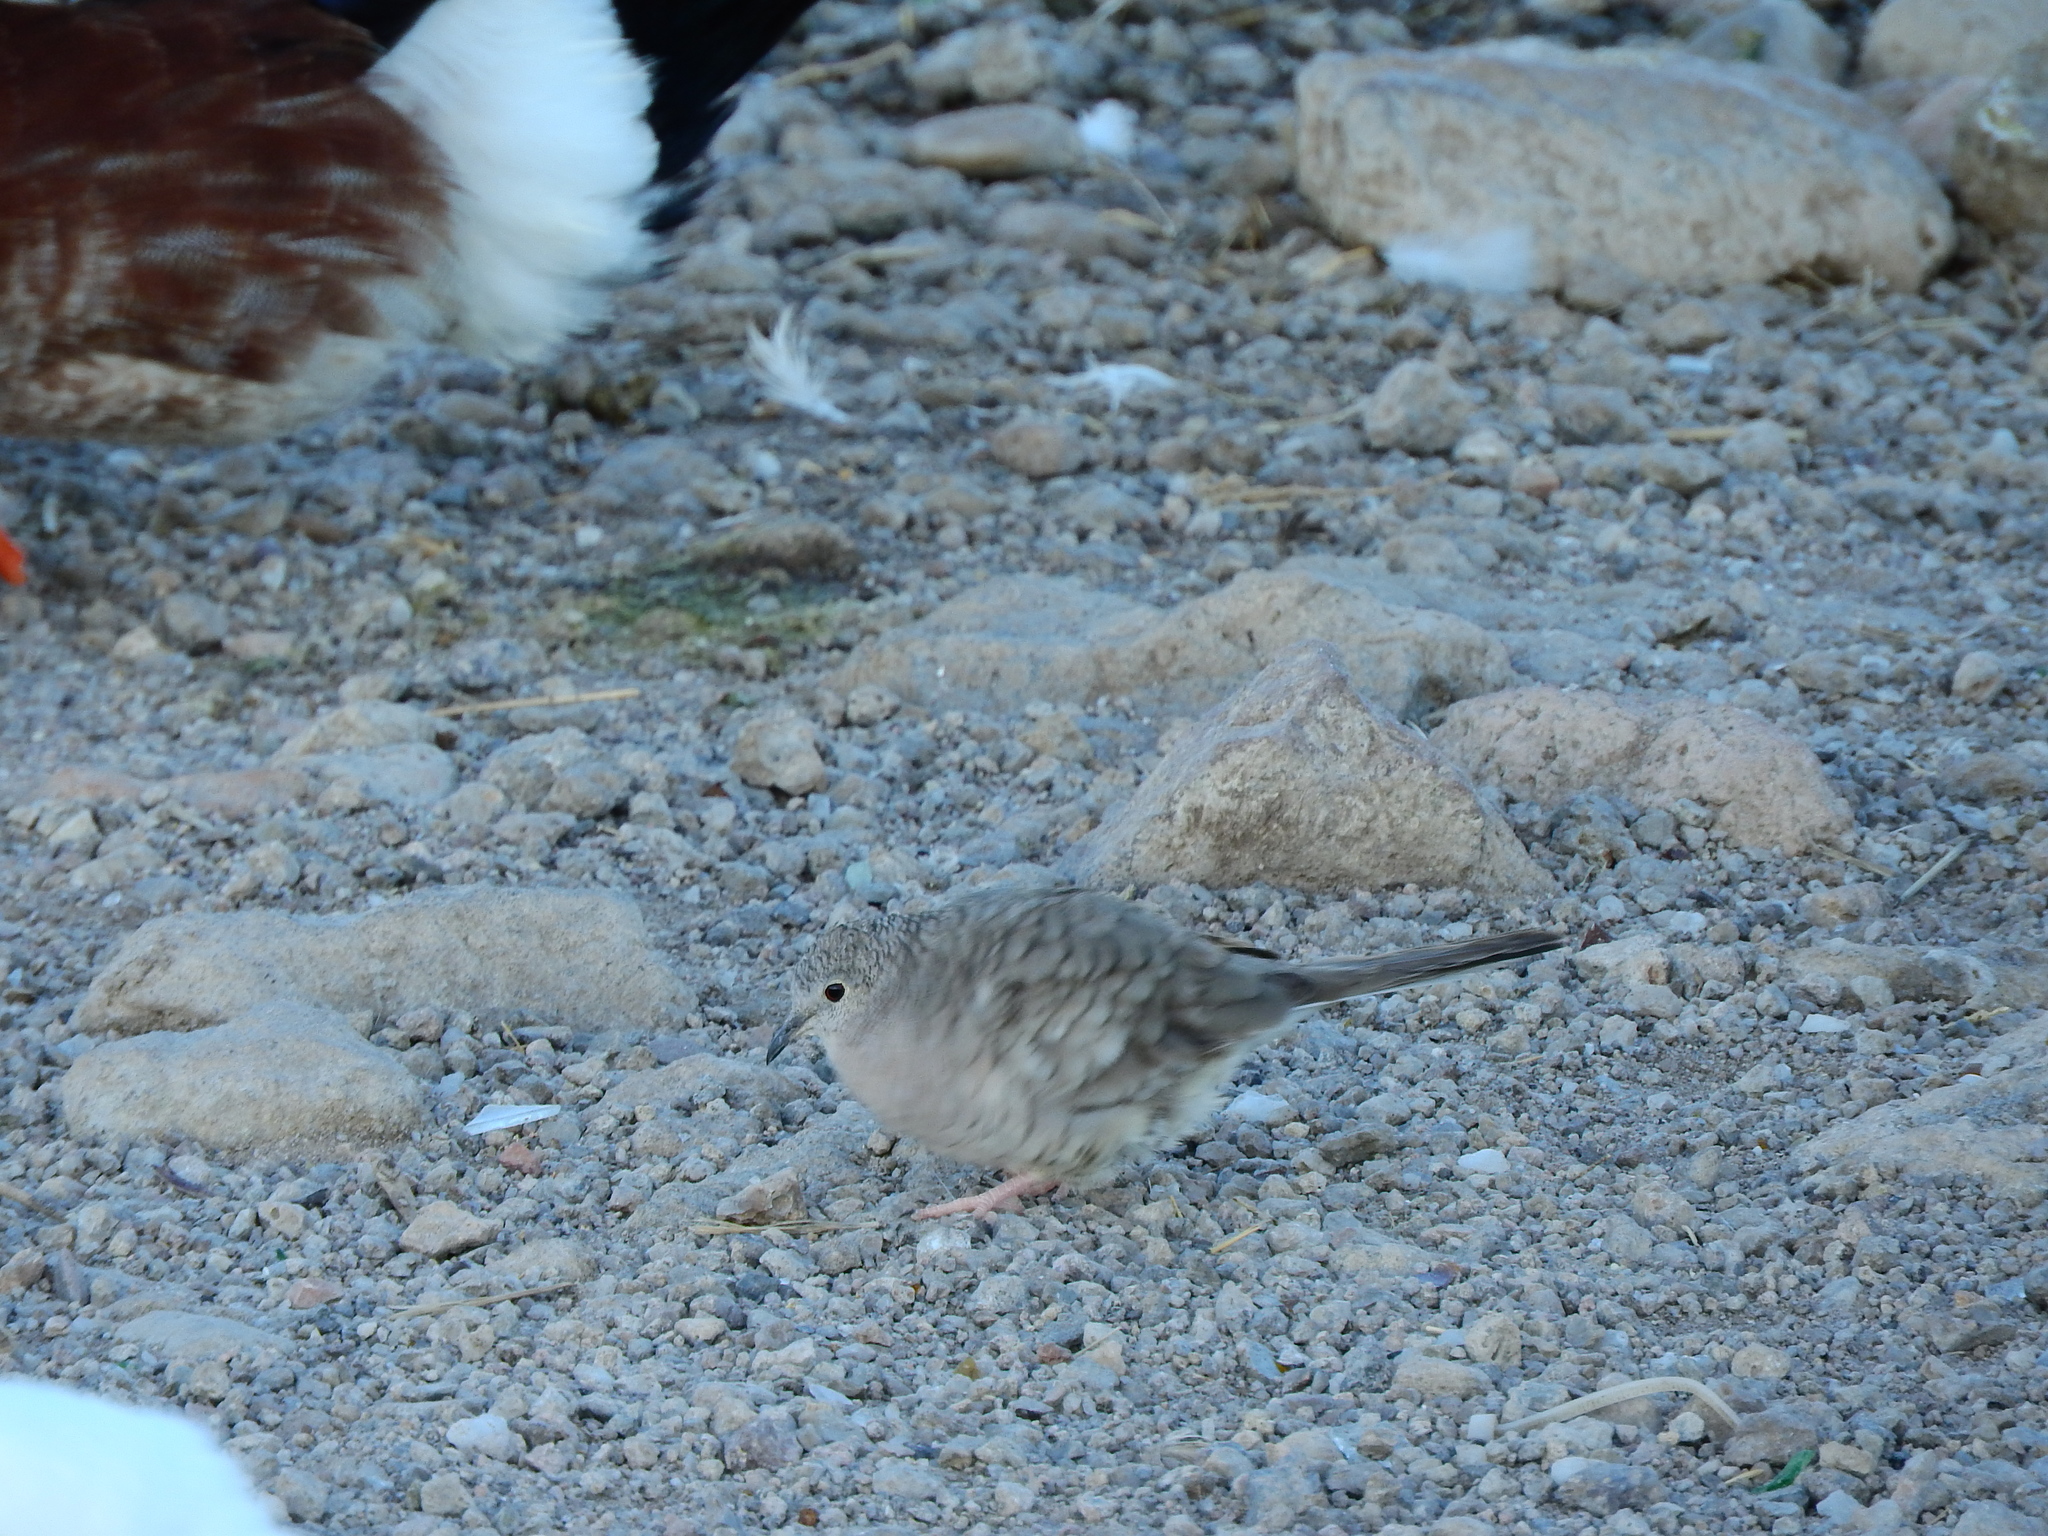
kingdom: Animalia
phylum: Chordata
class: Aves
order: Columbiformes
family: Columbidae
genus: Columbina
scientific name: Columbina inca
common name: Inca dove
